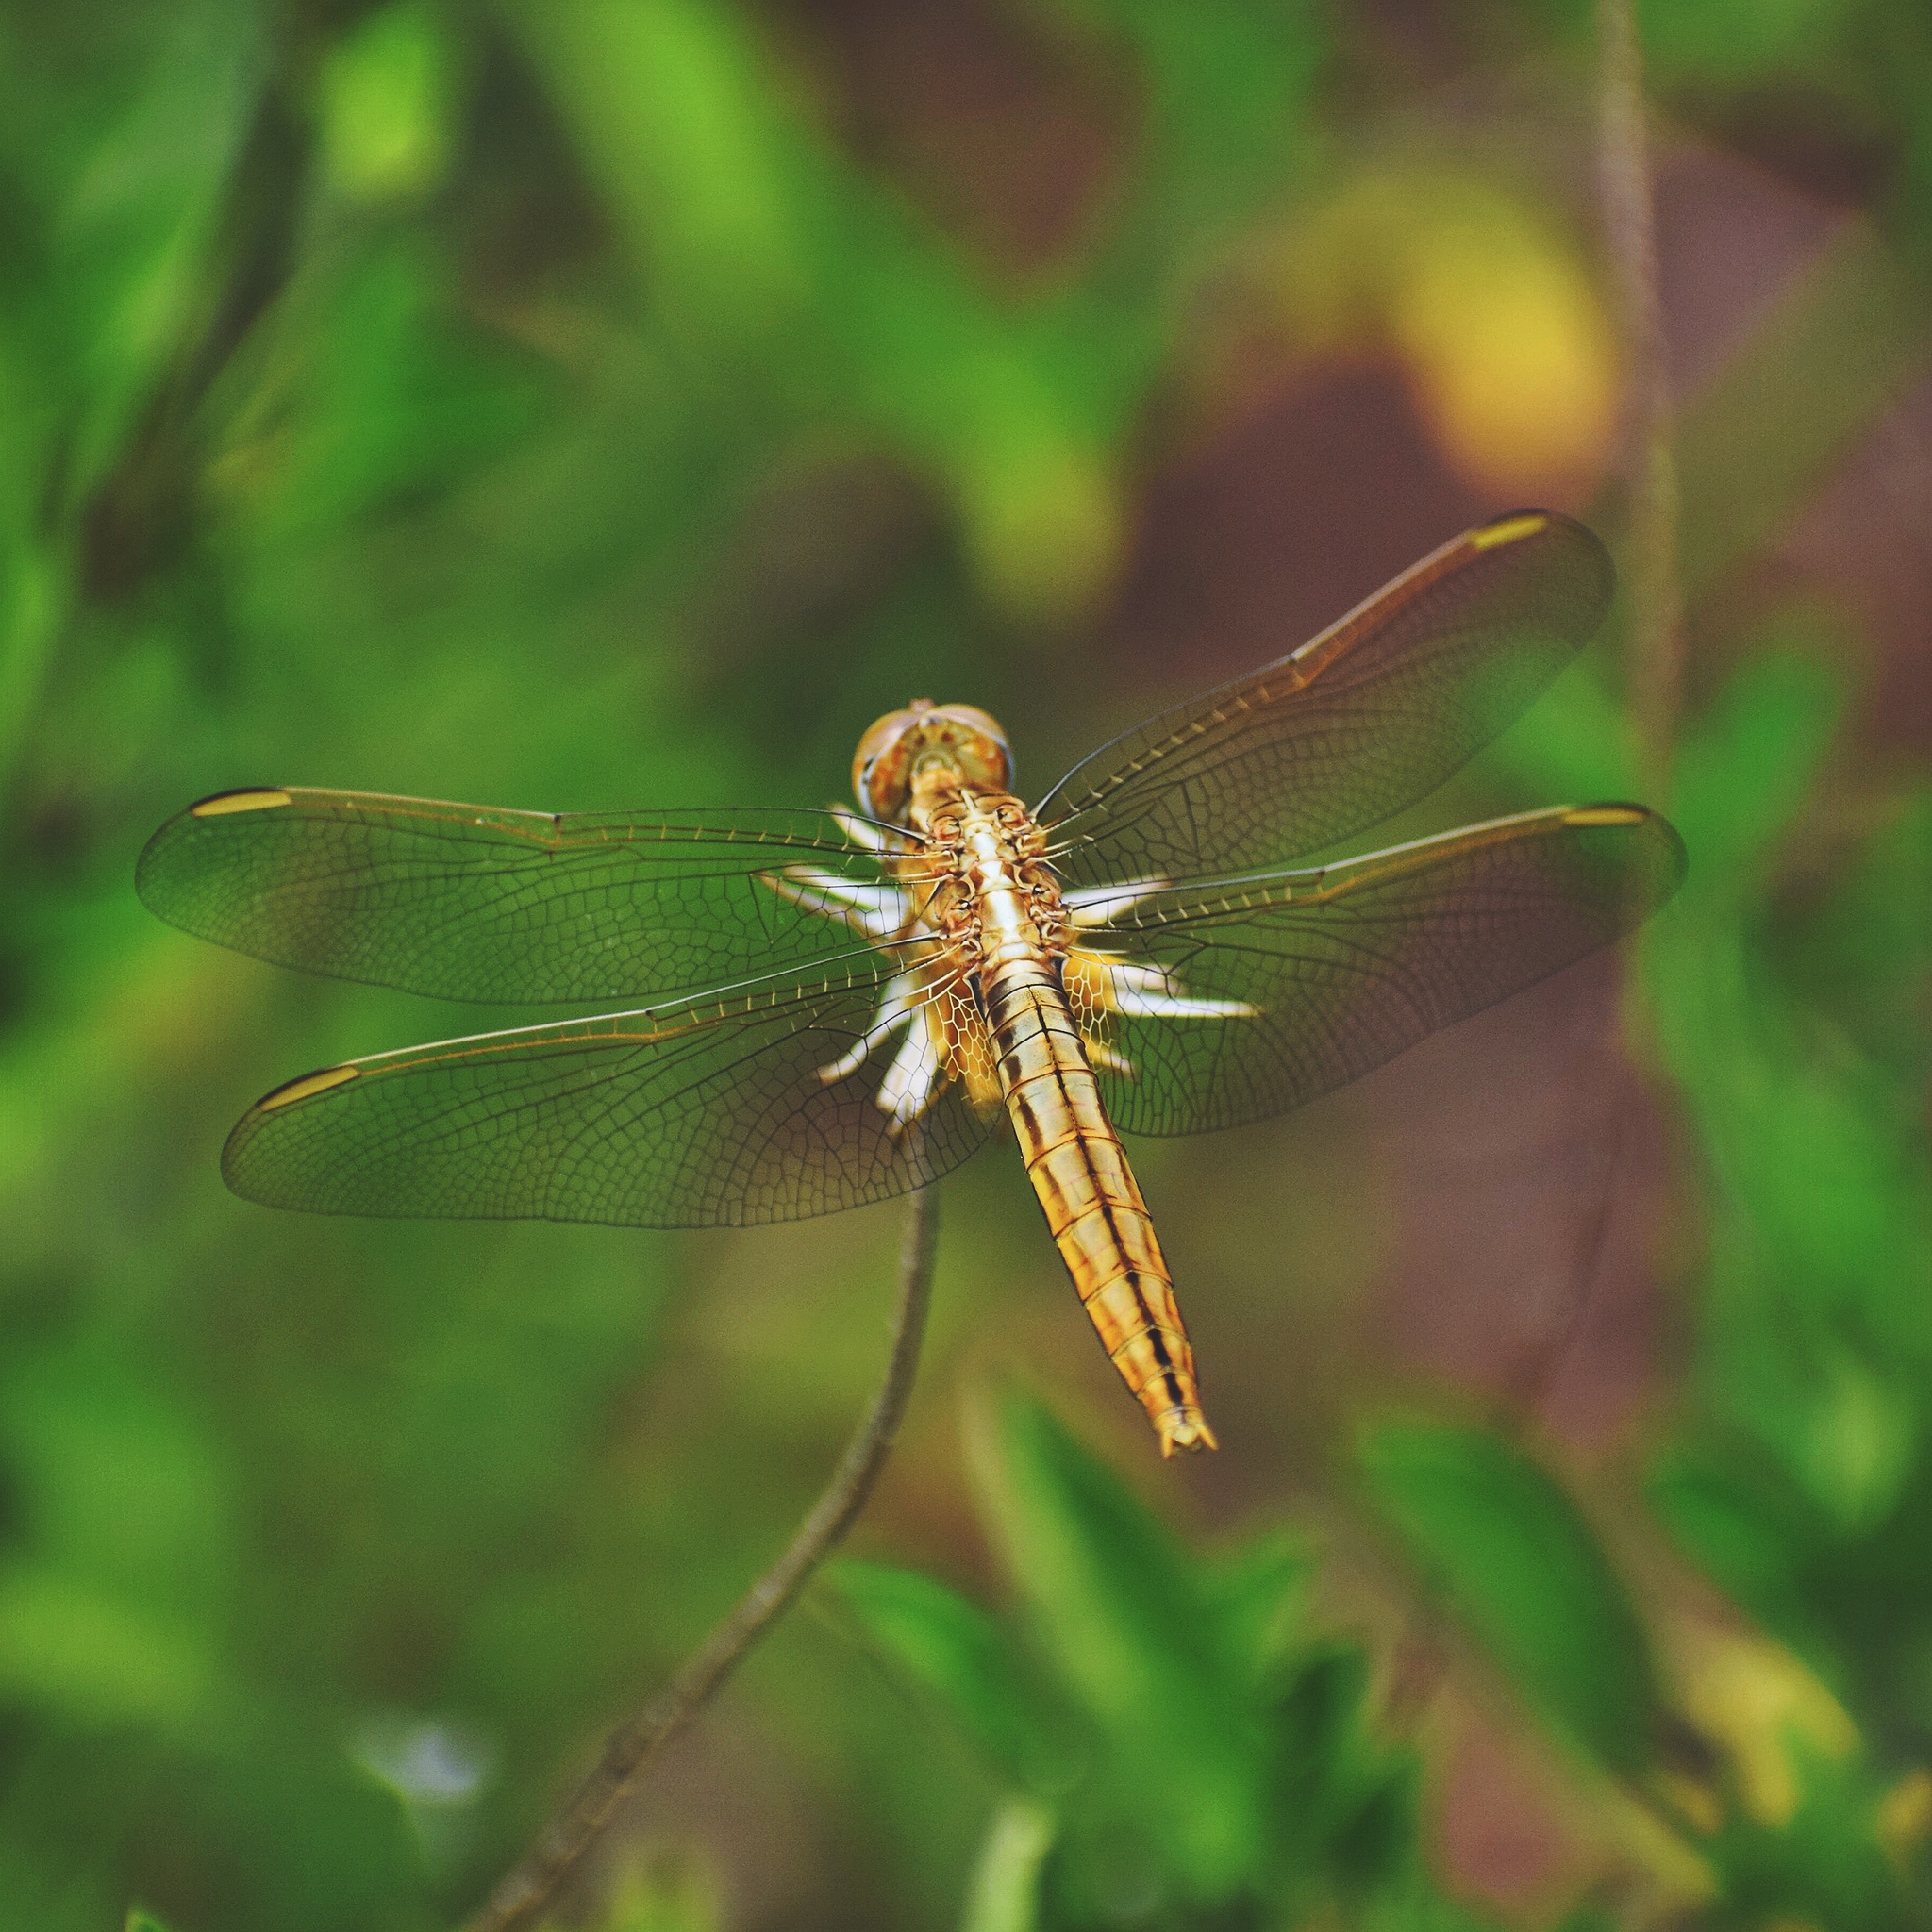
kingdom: Animalia
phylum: Arthropoda
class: Insecta
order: Odonata
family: Libellulidae
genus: Crocothemis
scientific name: Crocothemis erythraea
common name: Scarlet dragonfly
